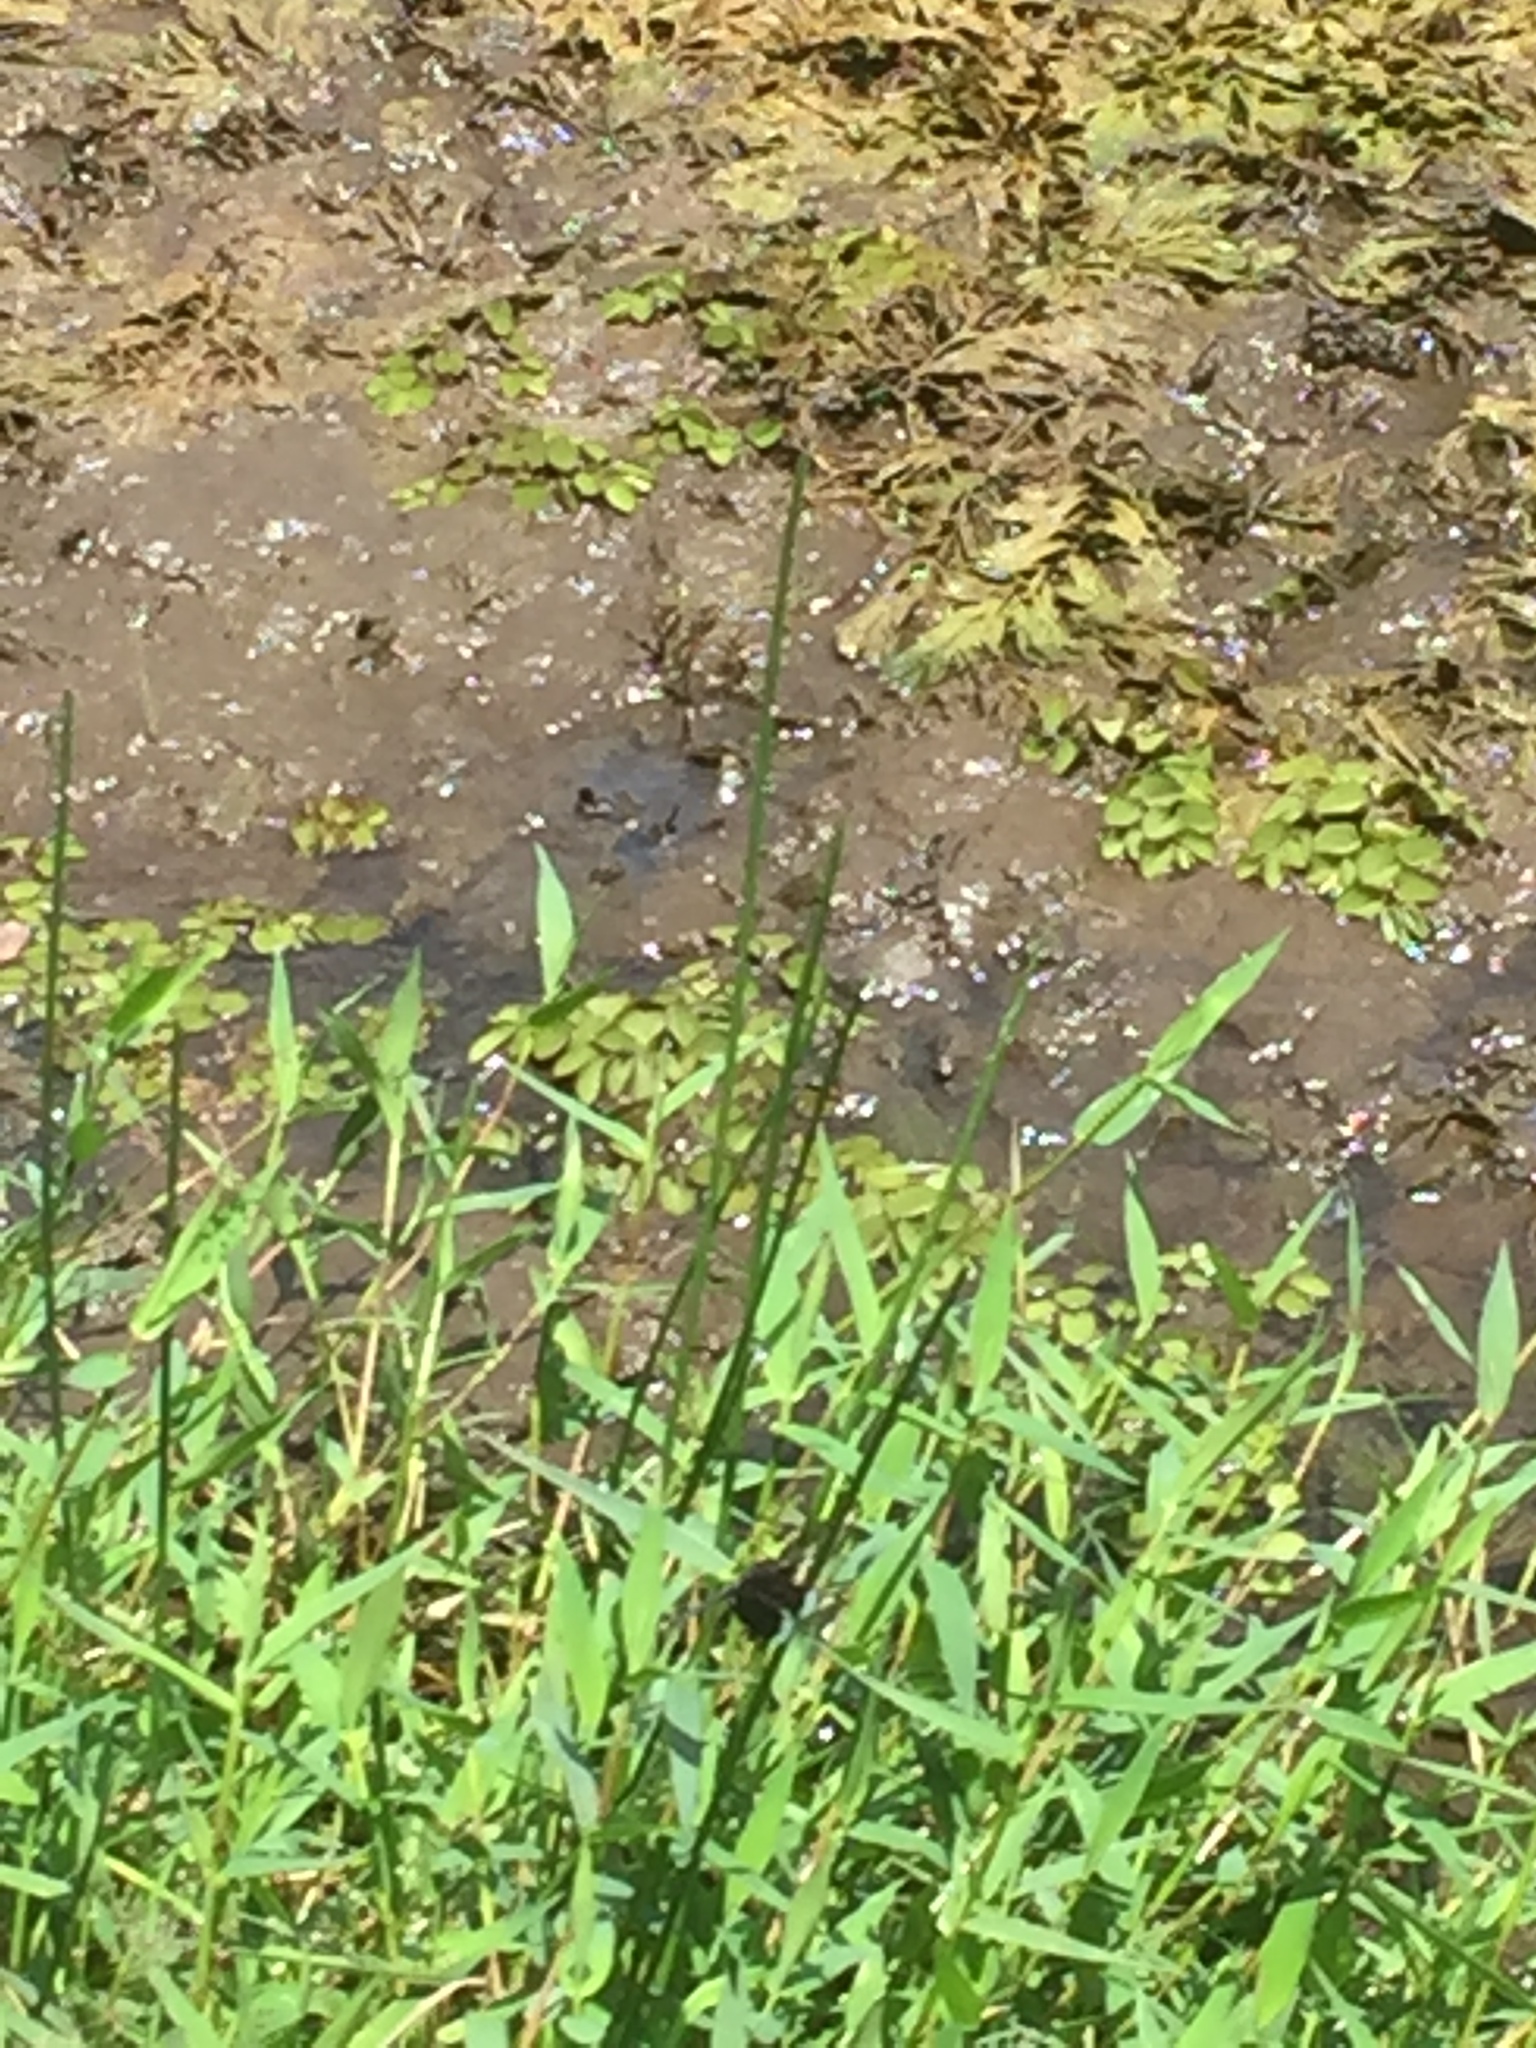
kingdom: Animalia
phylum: Arthropoda
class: Insecta
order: Odonata
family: Libellulidae
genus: Neurothemis
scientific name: Neurothemis tullia
